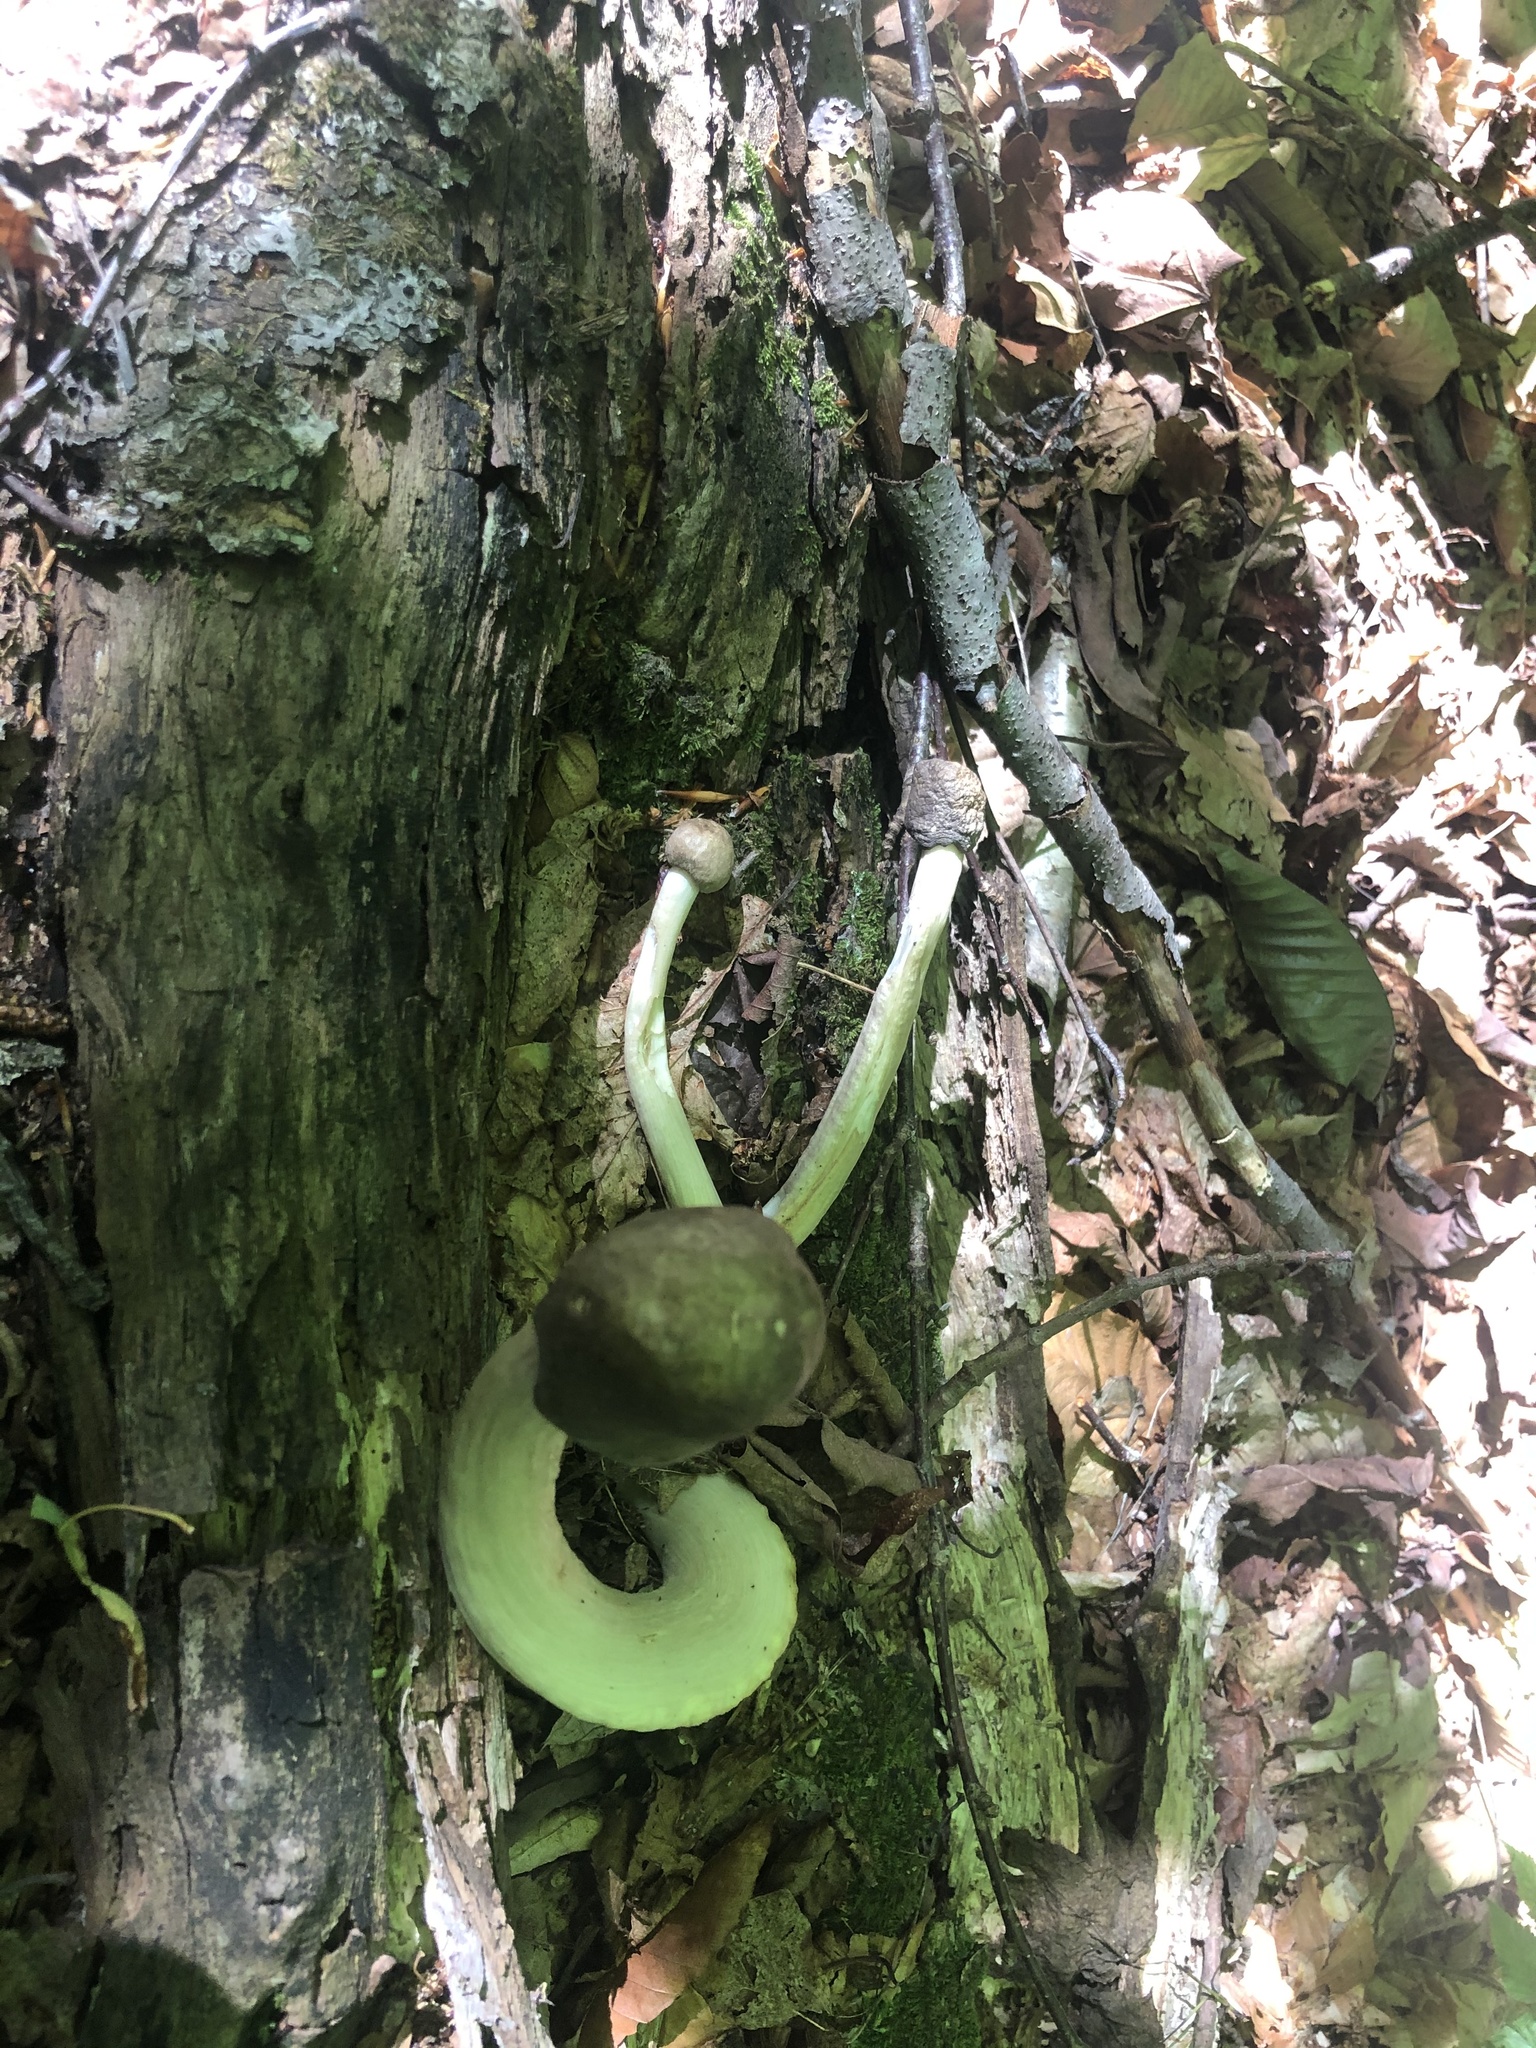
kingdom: Fungi
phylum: Basidiomycota
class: Agaricomycetes
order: Agaricales
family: Tricholomataceae
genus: Megacollybia
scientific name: Megacollybia rodmanii
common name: Eastern american platterful mushroom
